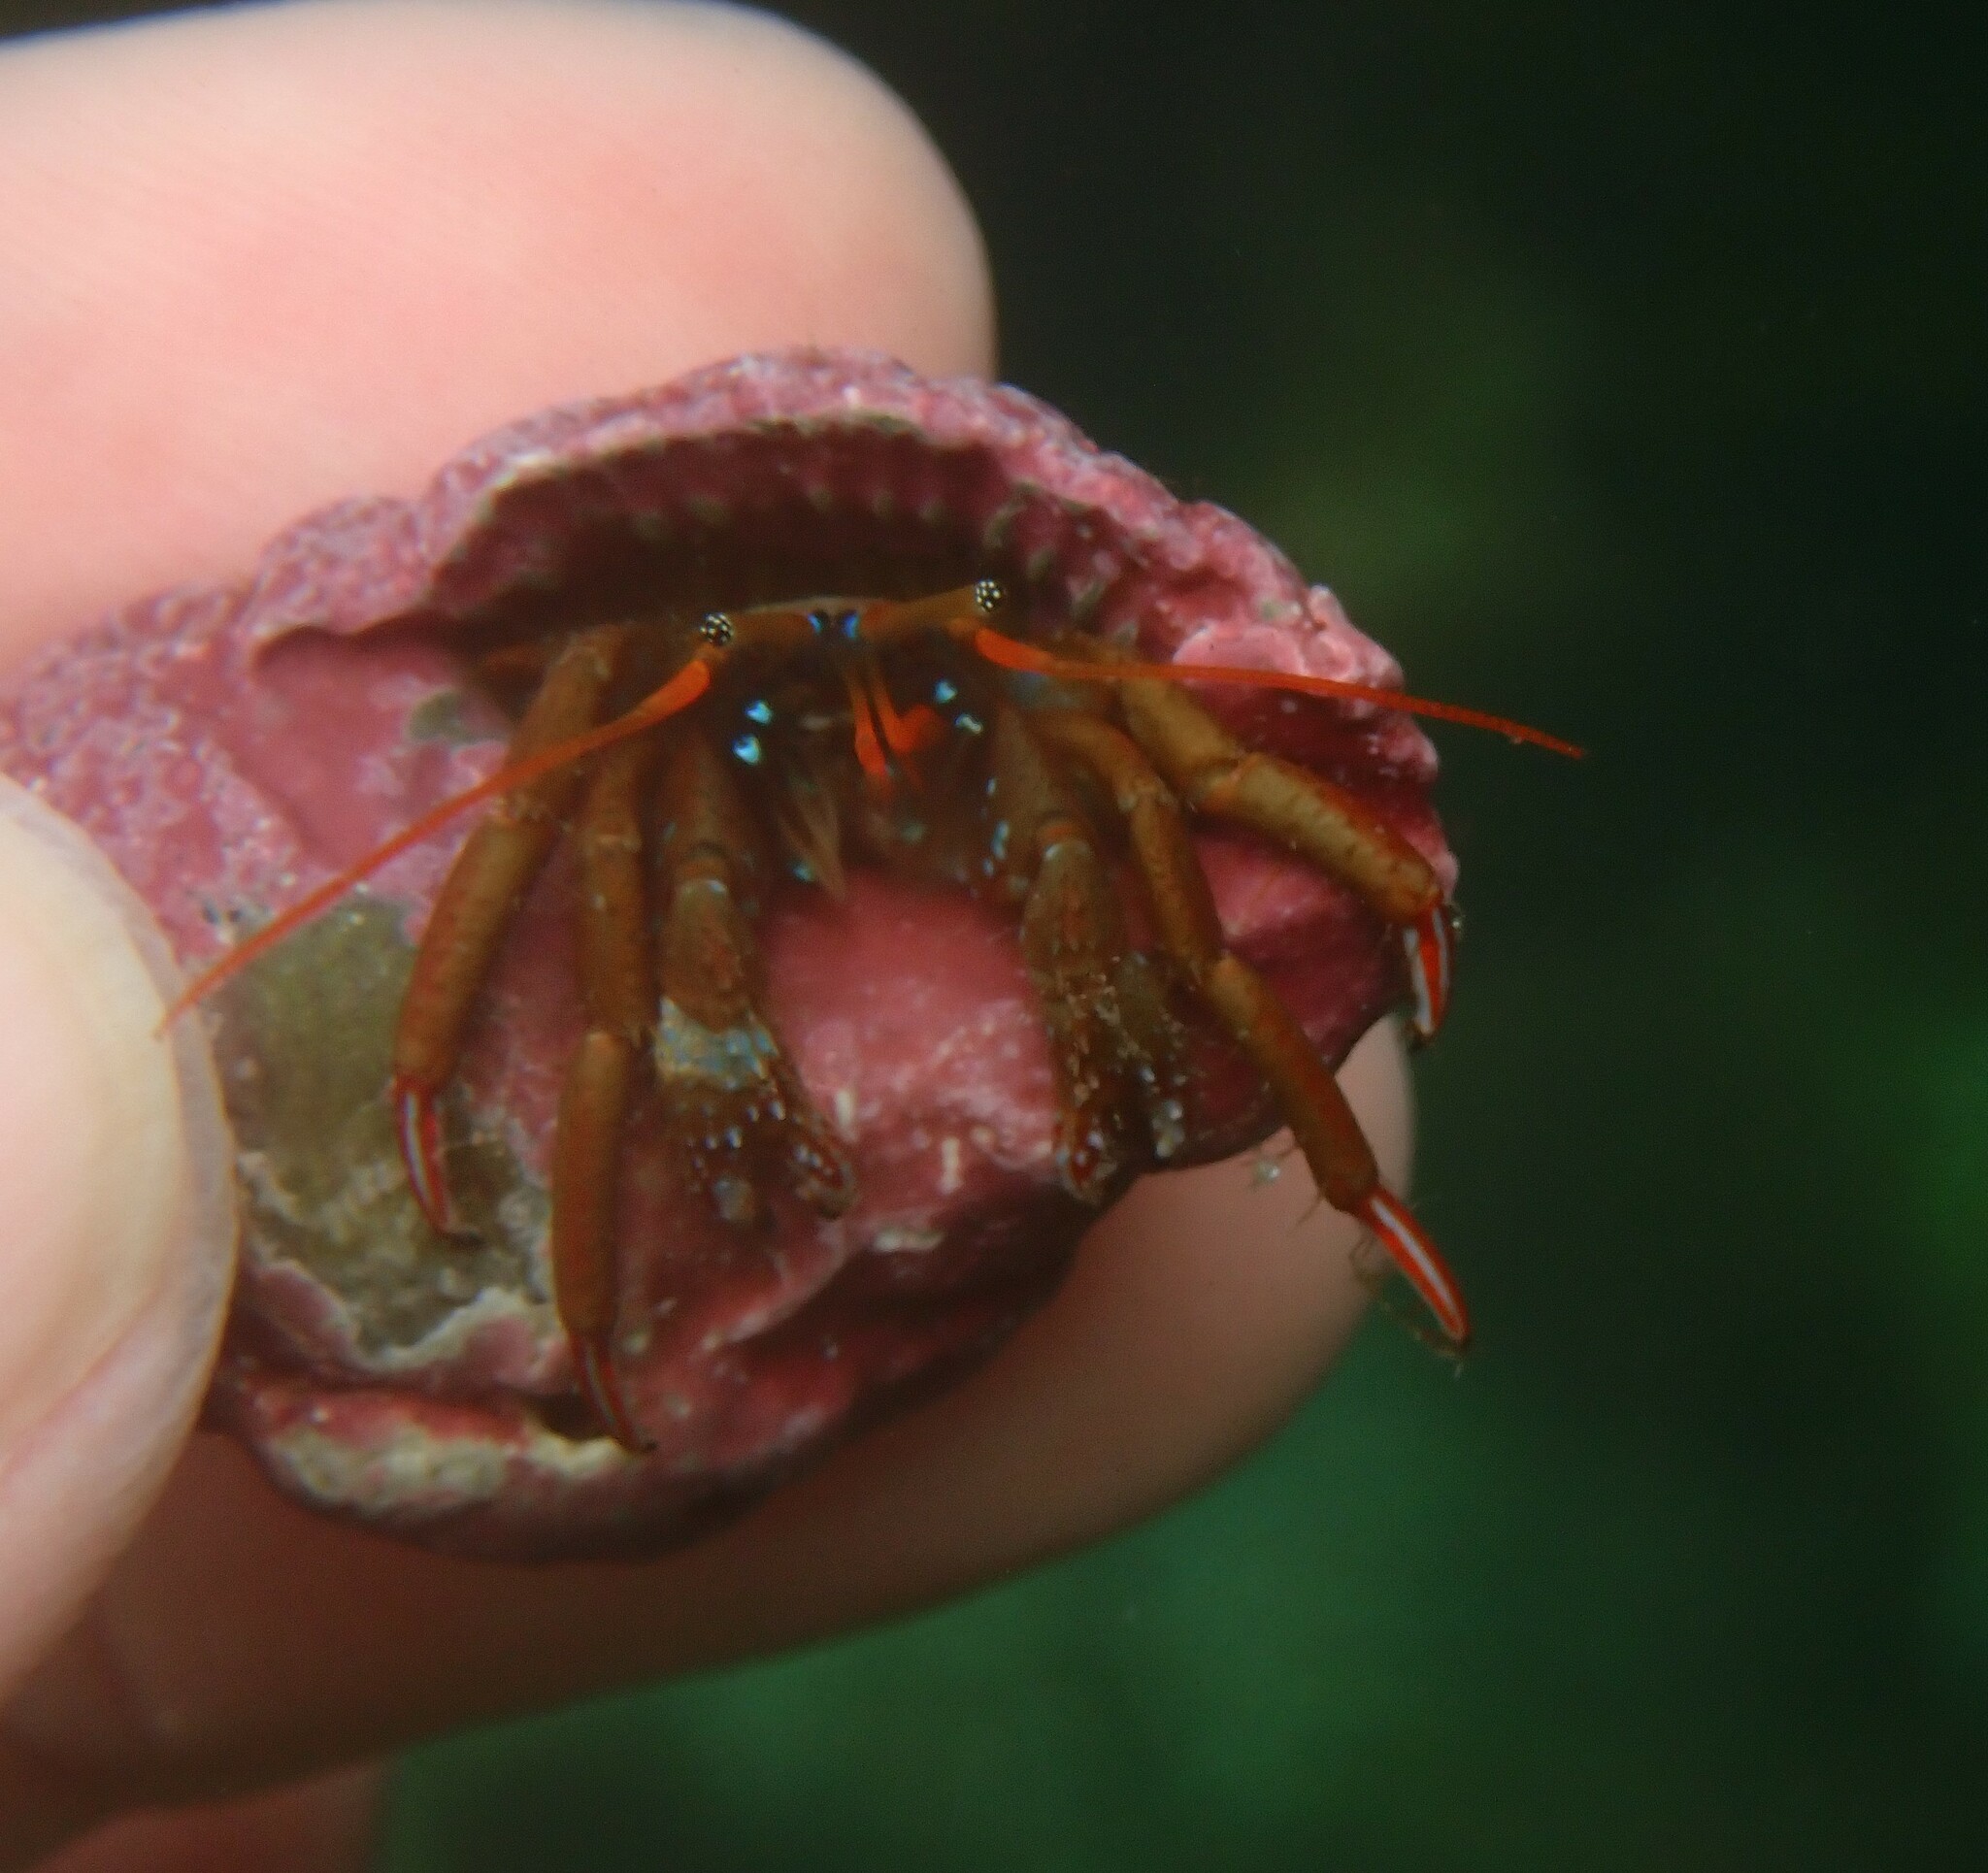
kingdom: Animalia
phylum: Arthropoda
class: Malacostraca
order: Decapoda
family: Diogenidae
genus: Clibanarius
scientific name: Clibanarius erythropus
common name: Hermit crab
